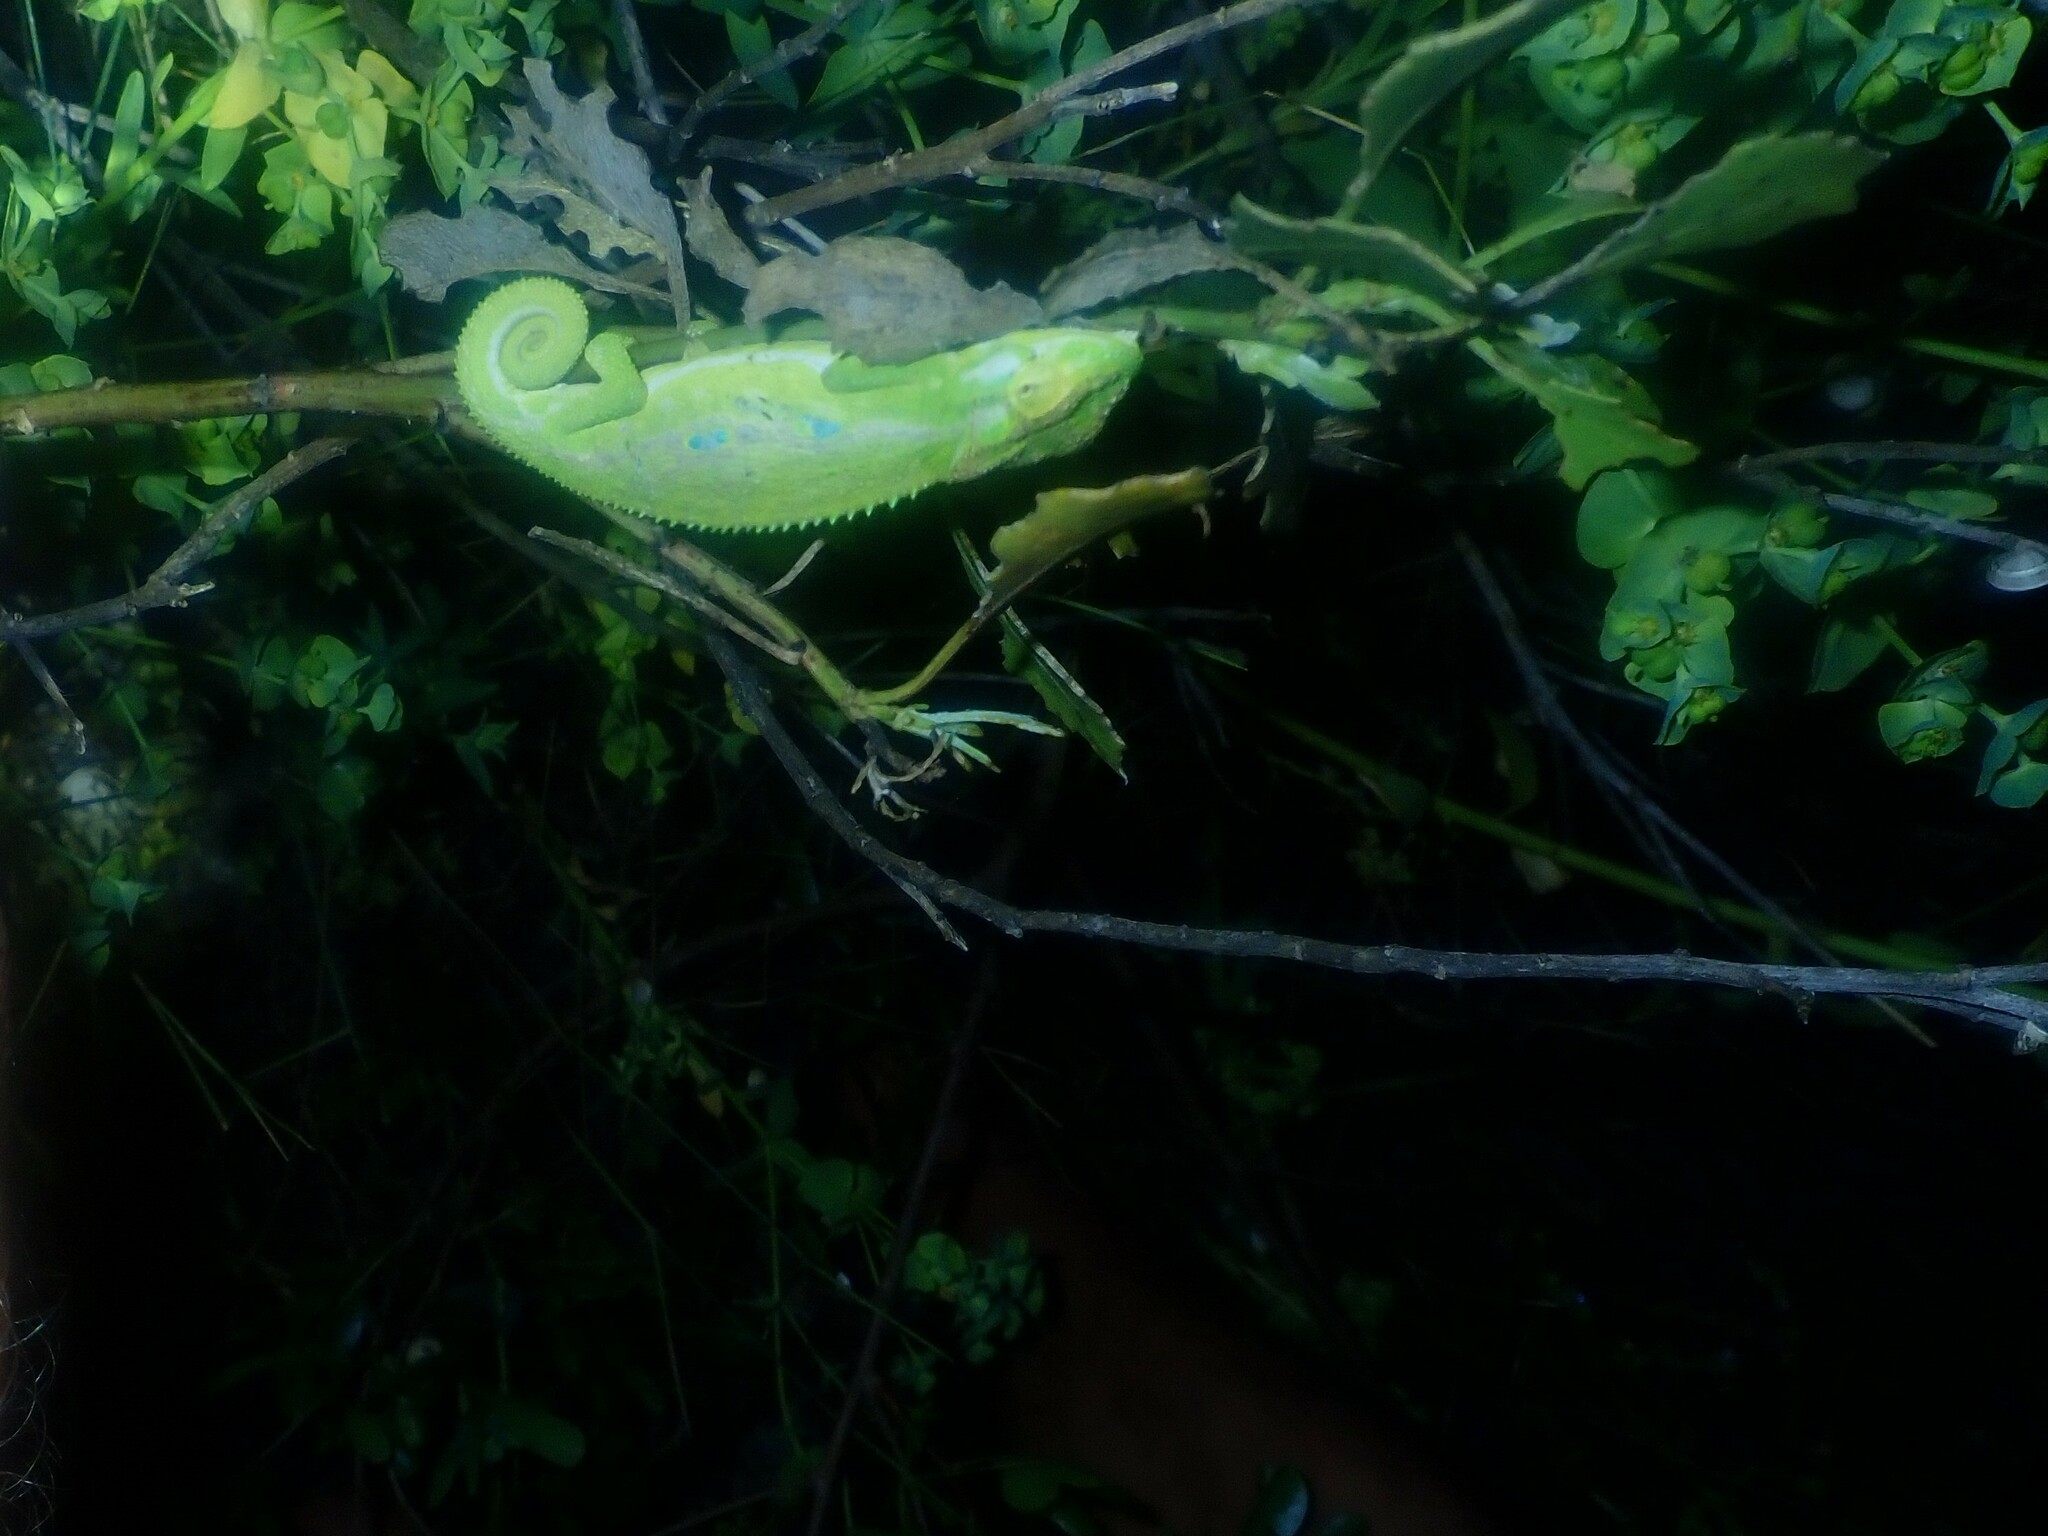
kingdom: Animalia
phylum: Chordata
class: Squamata
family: Chamaeleonidae
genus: Bradypodion
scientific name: Bradypodion pumilum
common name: Cape dwarf chameleon
